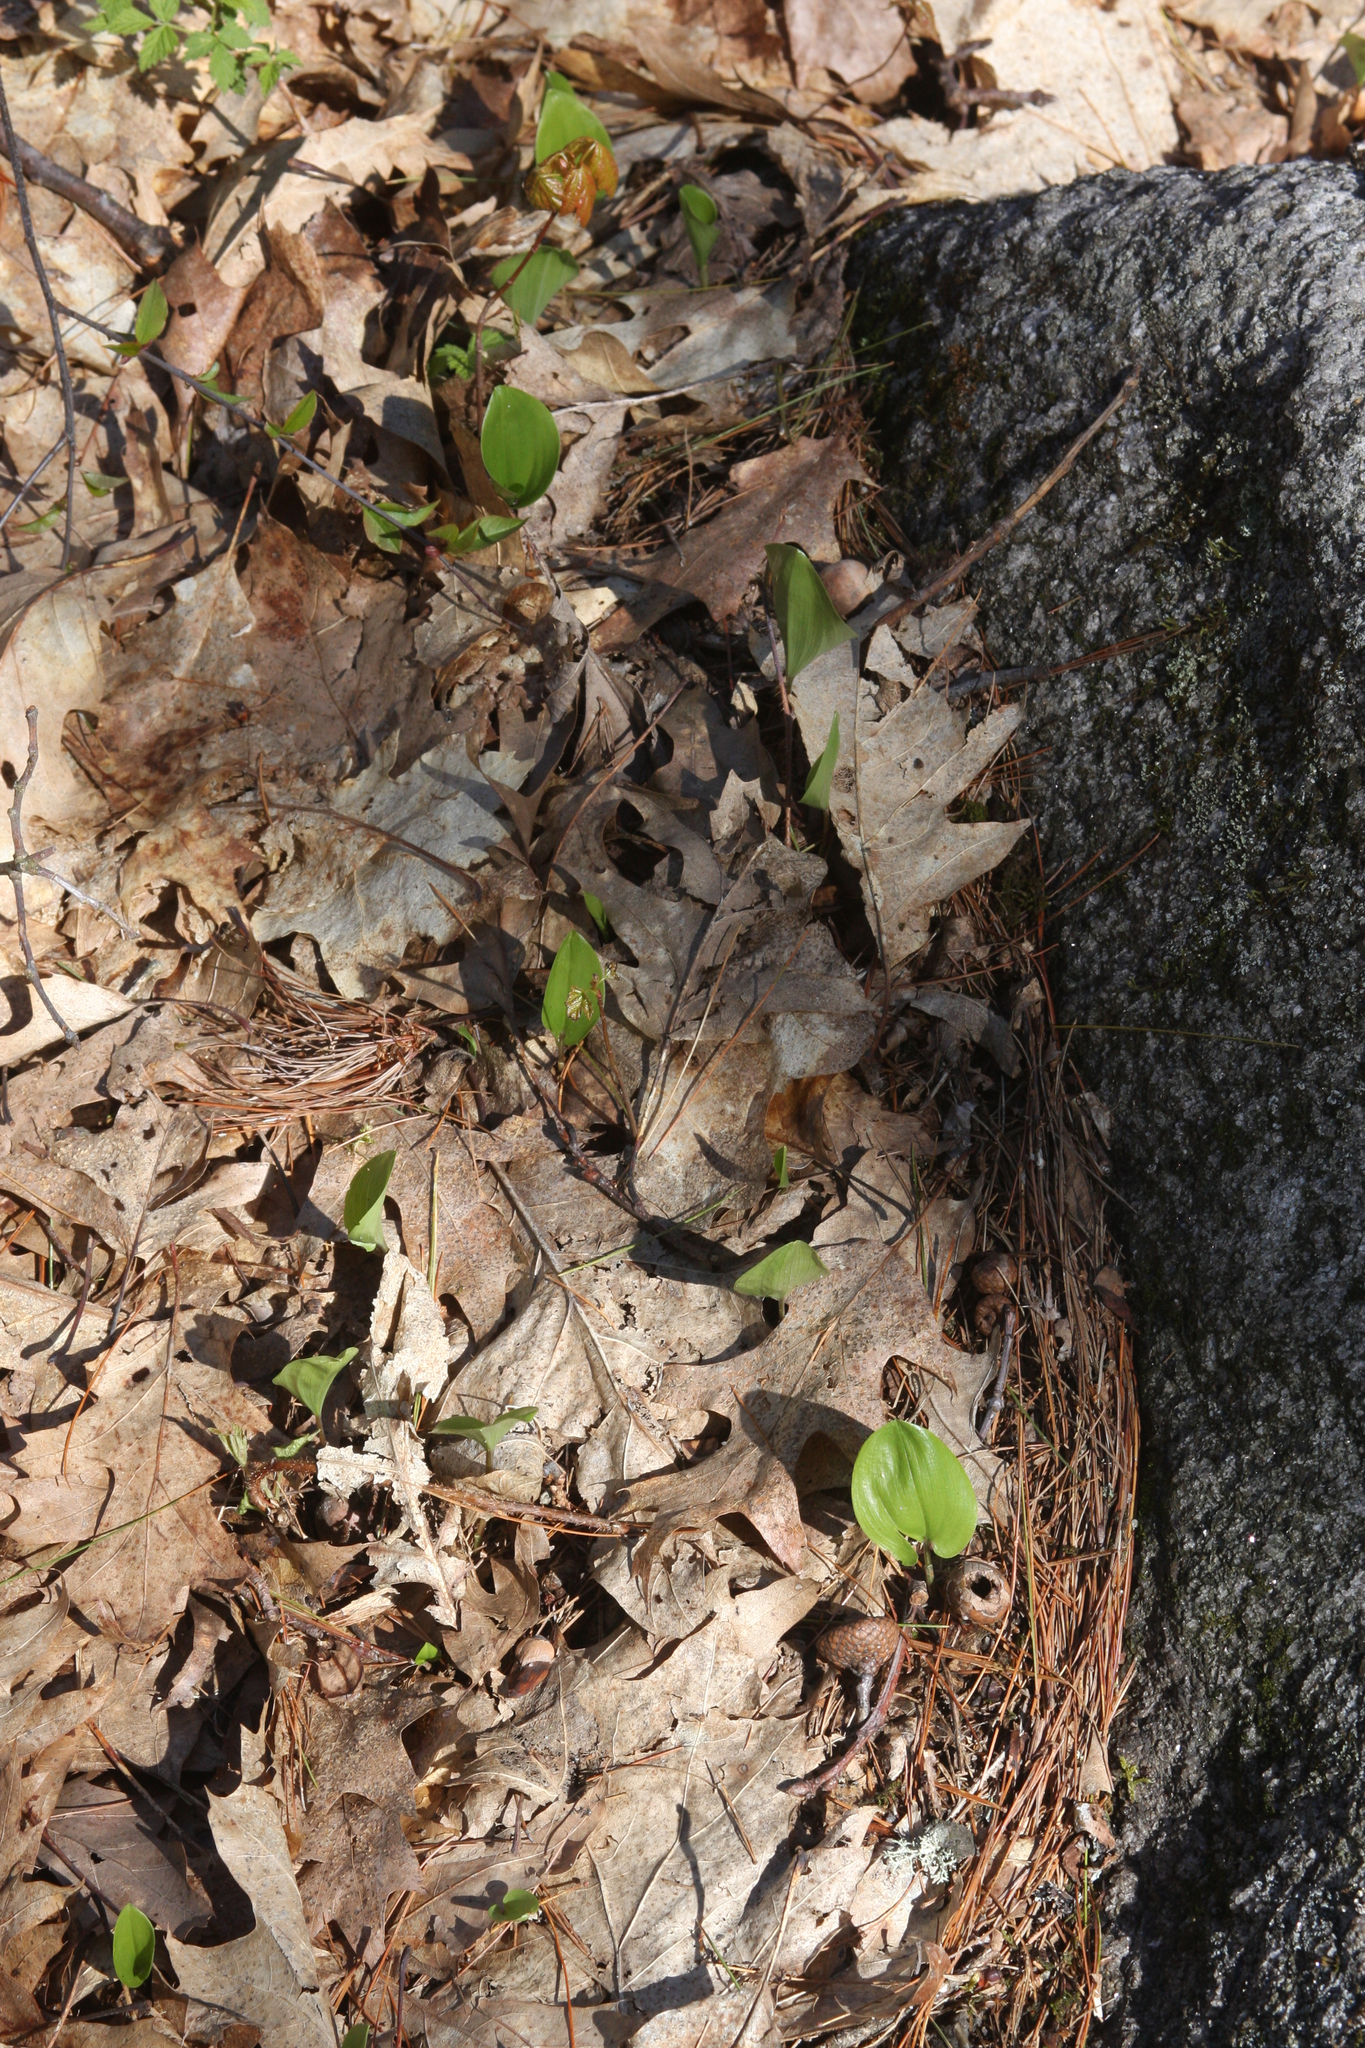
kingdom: Plantae
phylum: Tracheophyta
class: Liliopsida
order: Asparagales
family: Asparagaceae
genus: Maianthemum
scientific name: Maianthemum canadense
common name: False lily-of-the-valley
